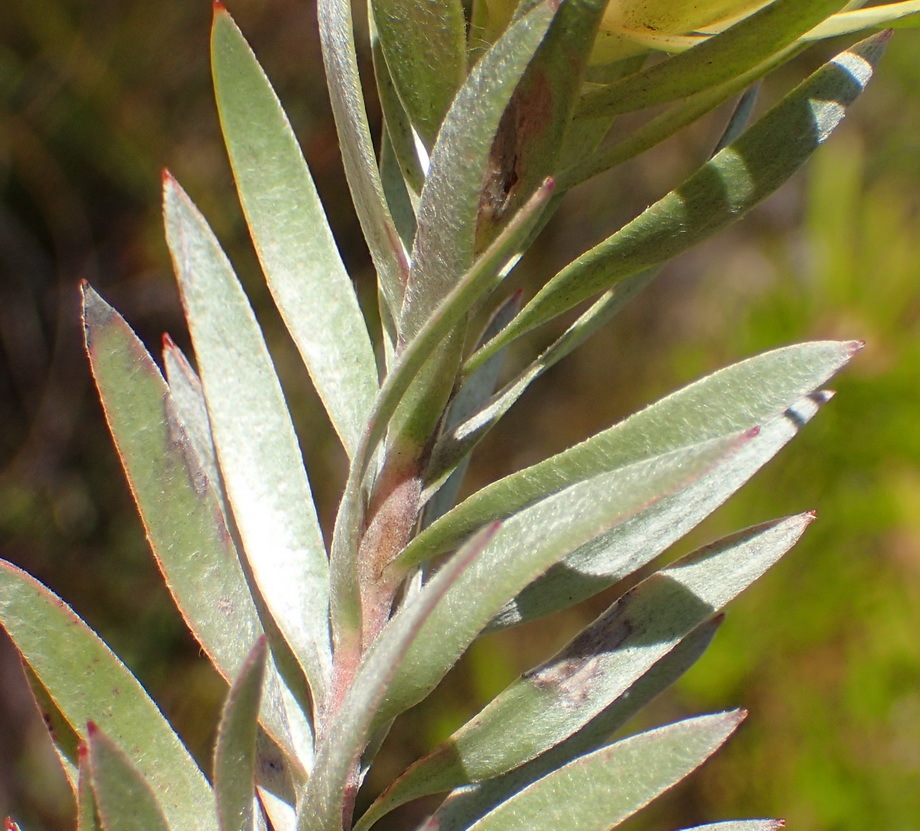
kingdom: Plantae
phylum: Tracheophyta
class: Magnoliopsida
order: Proteales
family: Proteaceae
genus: Leucadendron
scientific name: Leucadendron uliginosum
